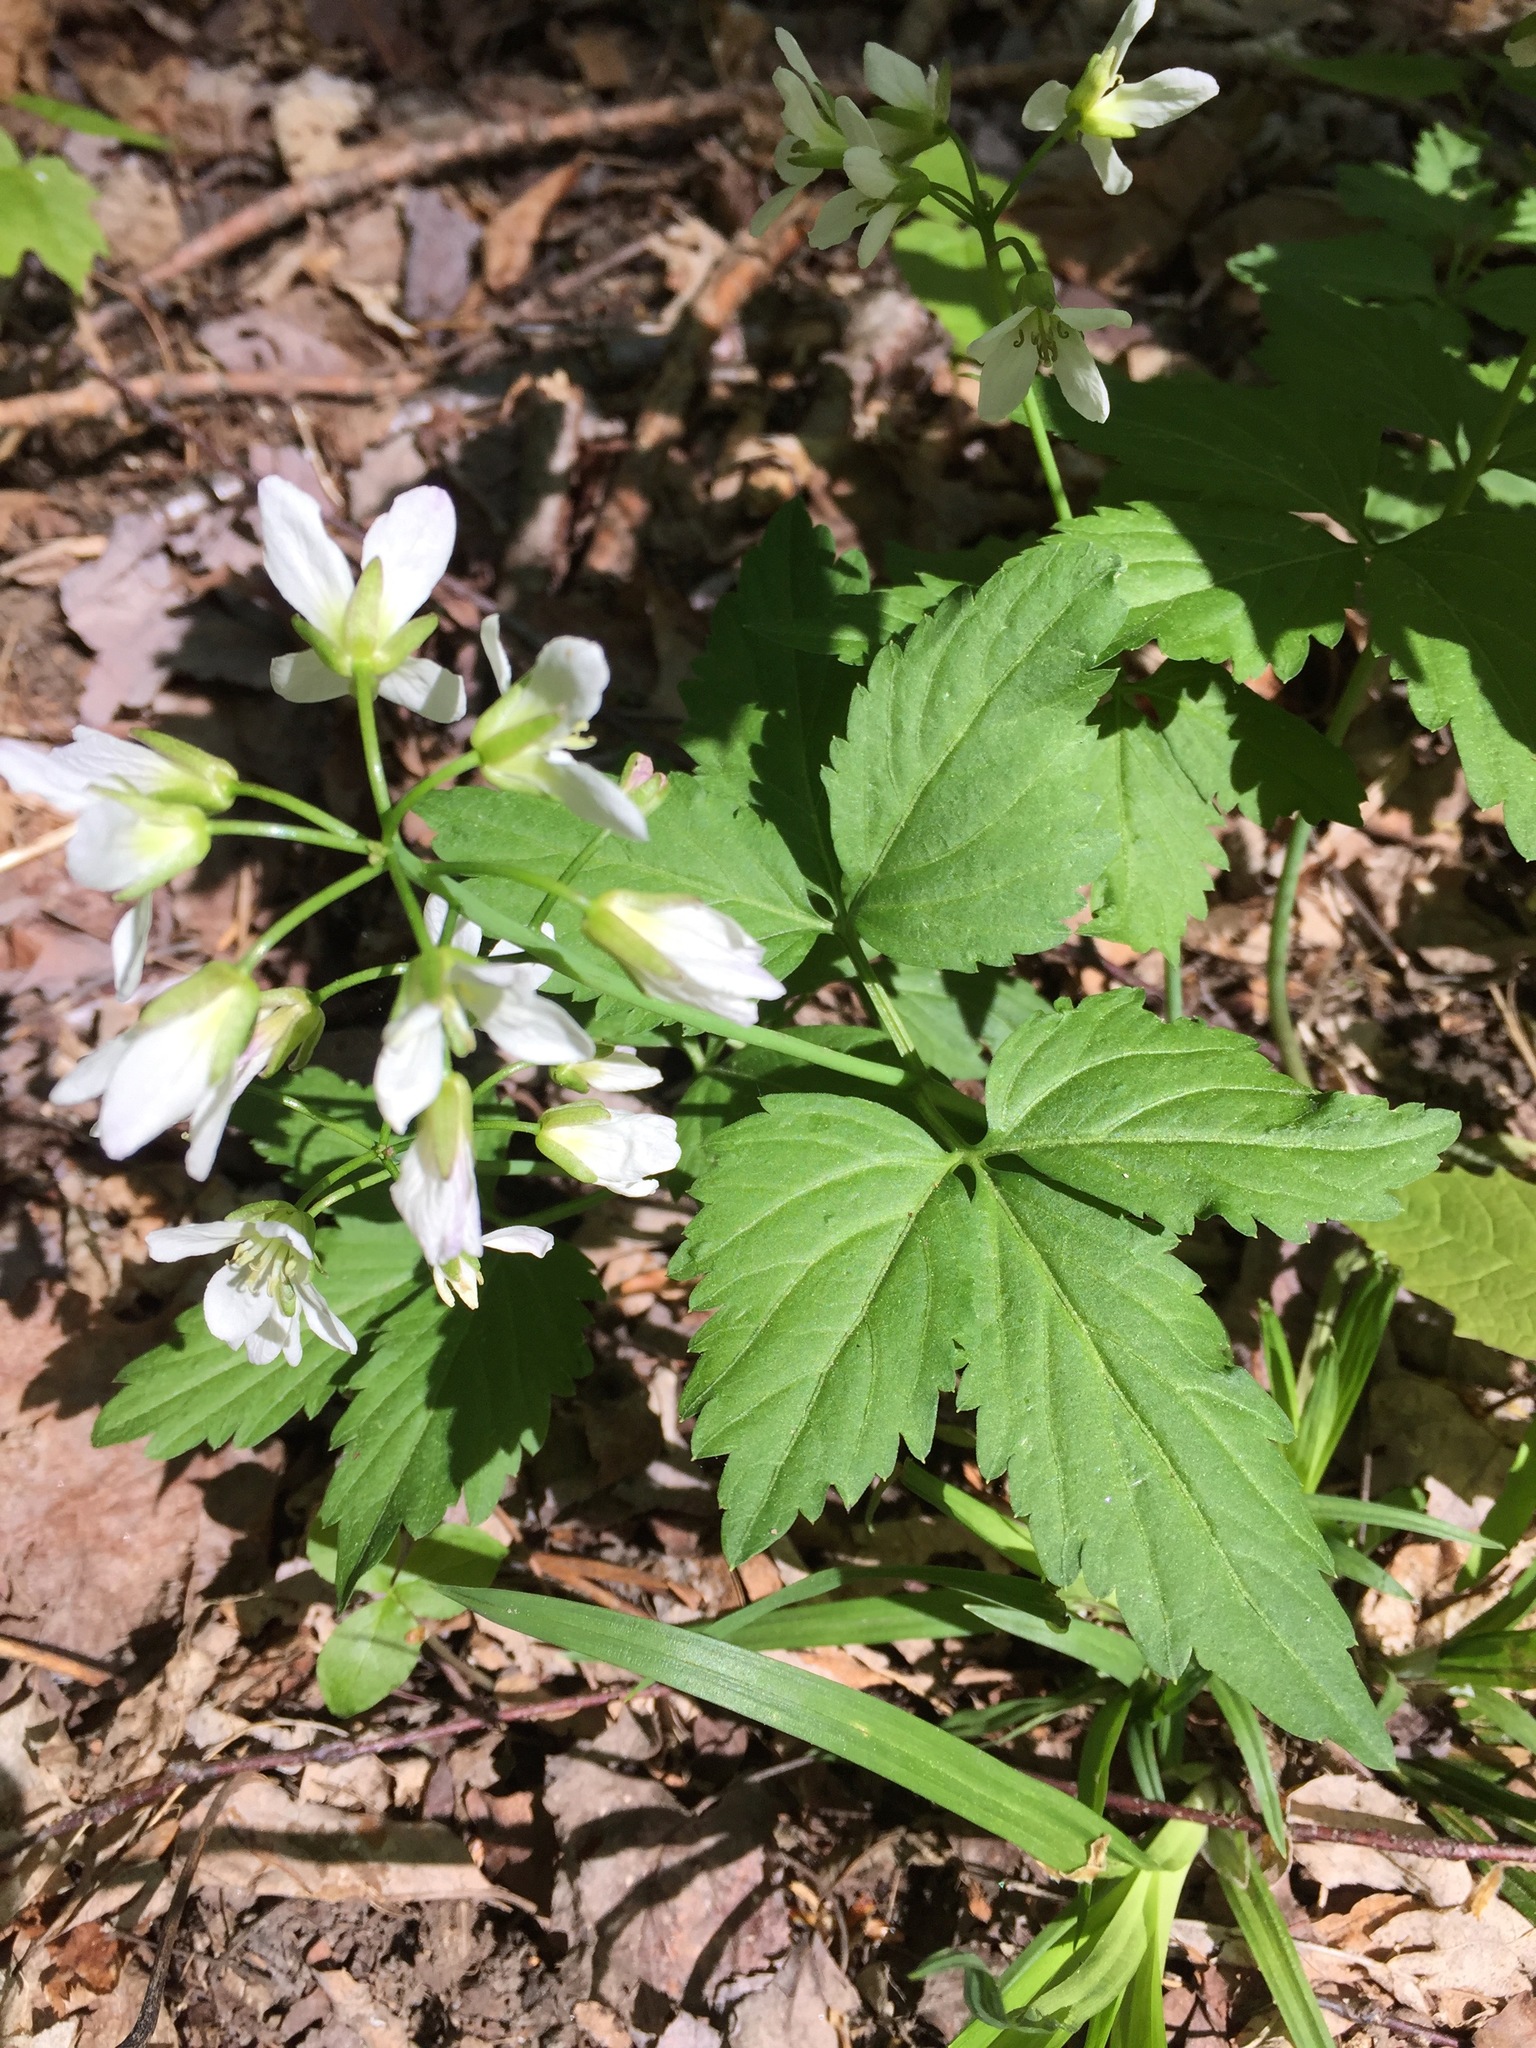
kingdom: Plantae
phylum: Tracheophyta
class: Magnoliopsida
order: Brassicales
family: Brassicaceae
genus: Cardamine
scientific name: Cardamine diphylla
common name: Broad-leaved toothwort
